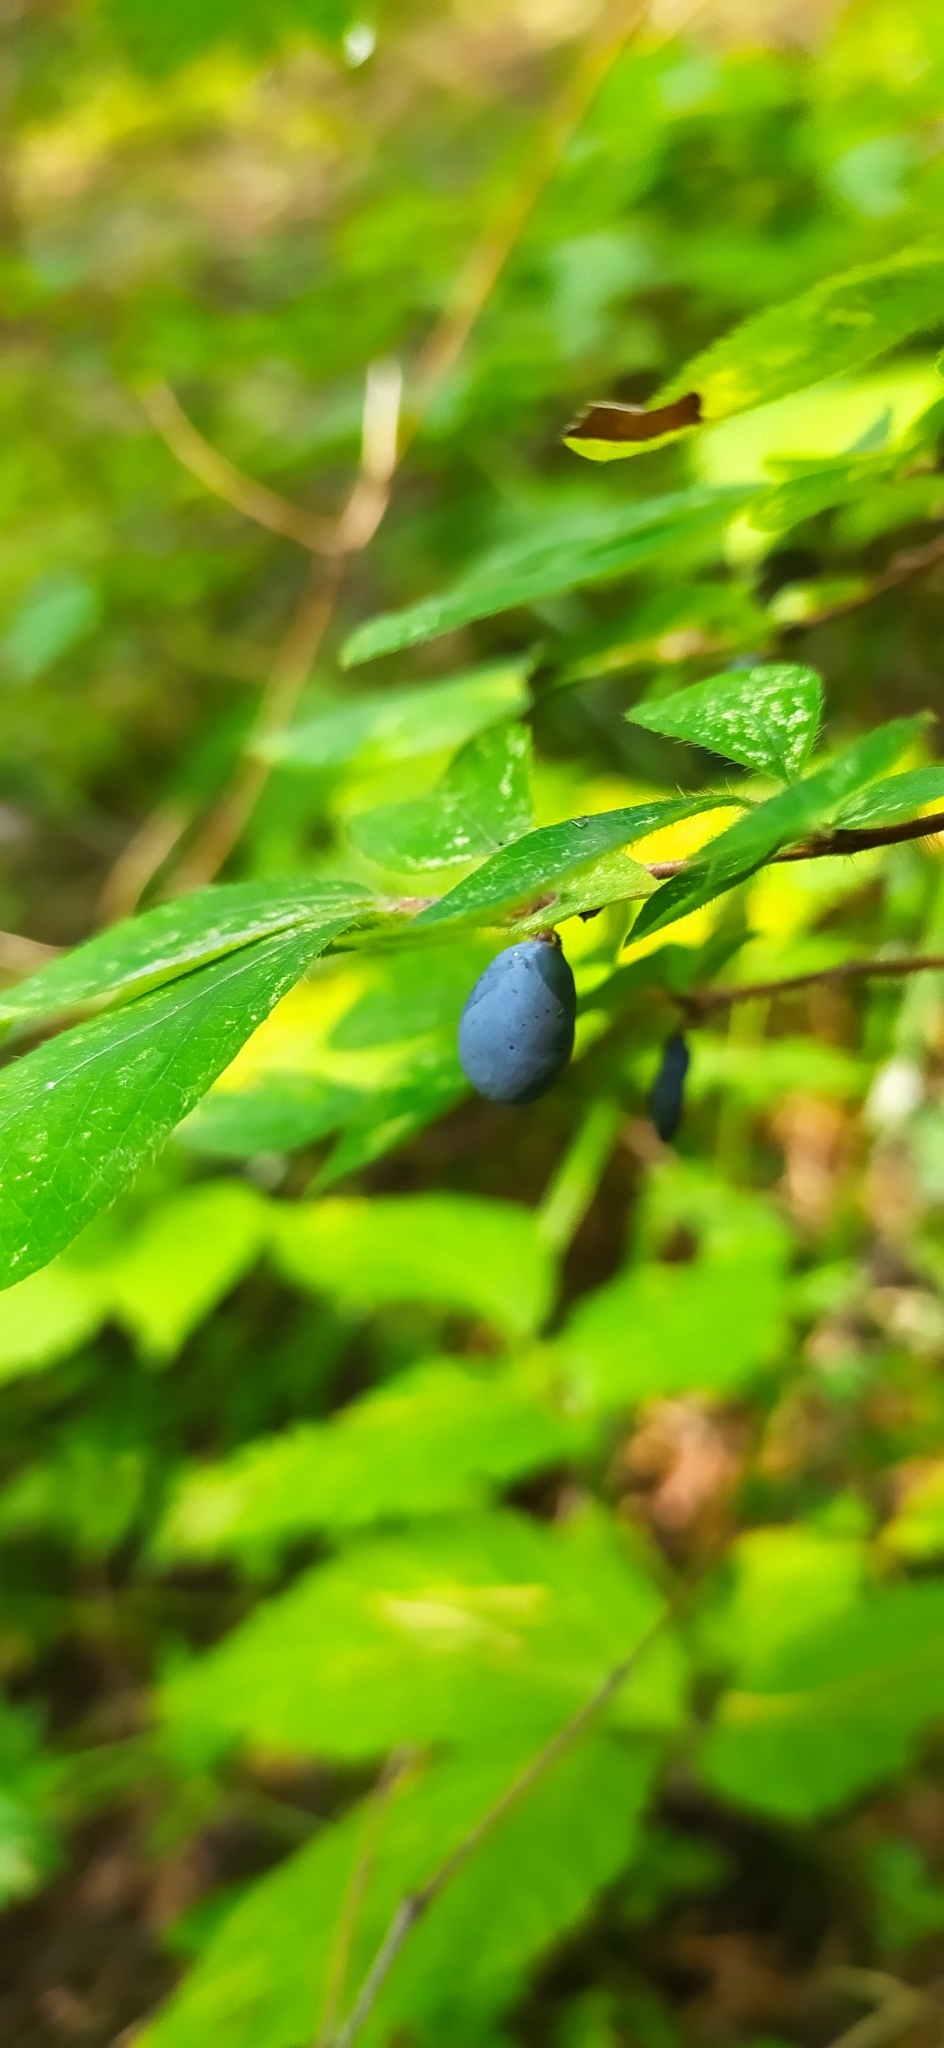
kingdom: Plantae
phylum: Tracheophyta
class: Magnoliopsida
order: Dipsacales
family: Caprifoliaceae
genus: Lonicera
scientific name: Lonicera caerulea
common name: Blue honeysuckle
